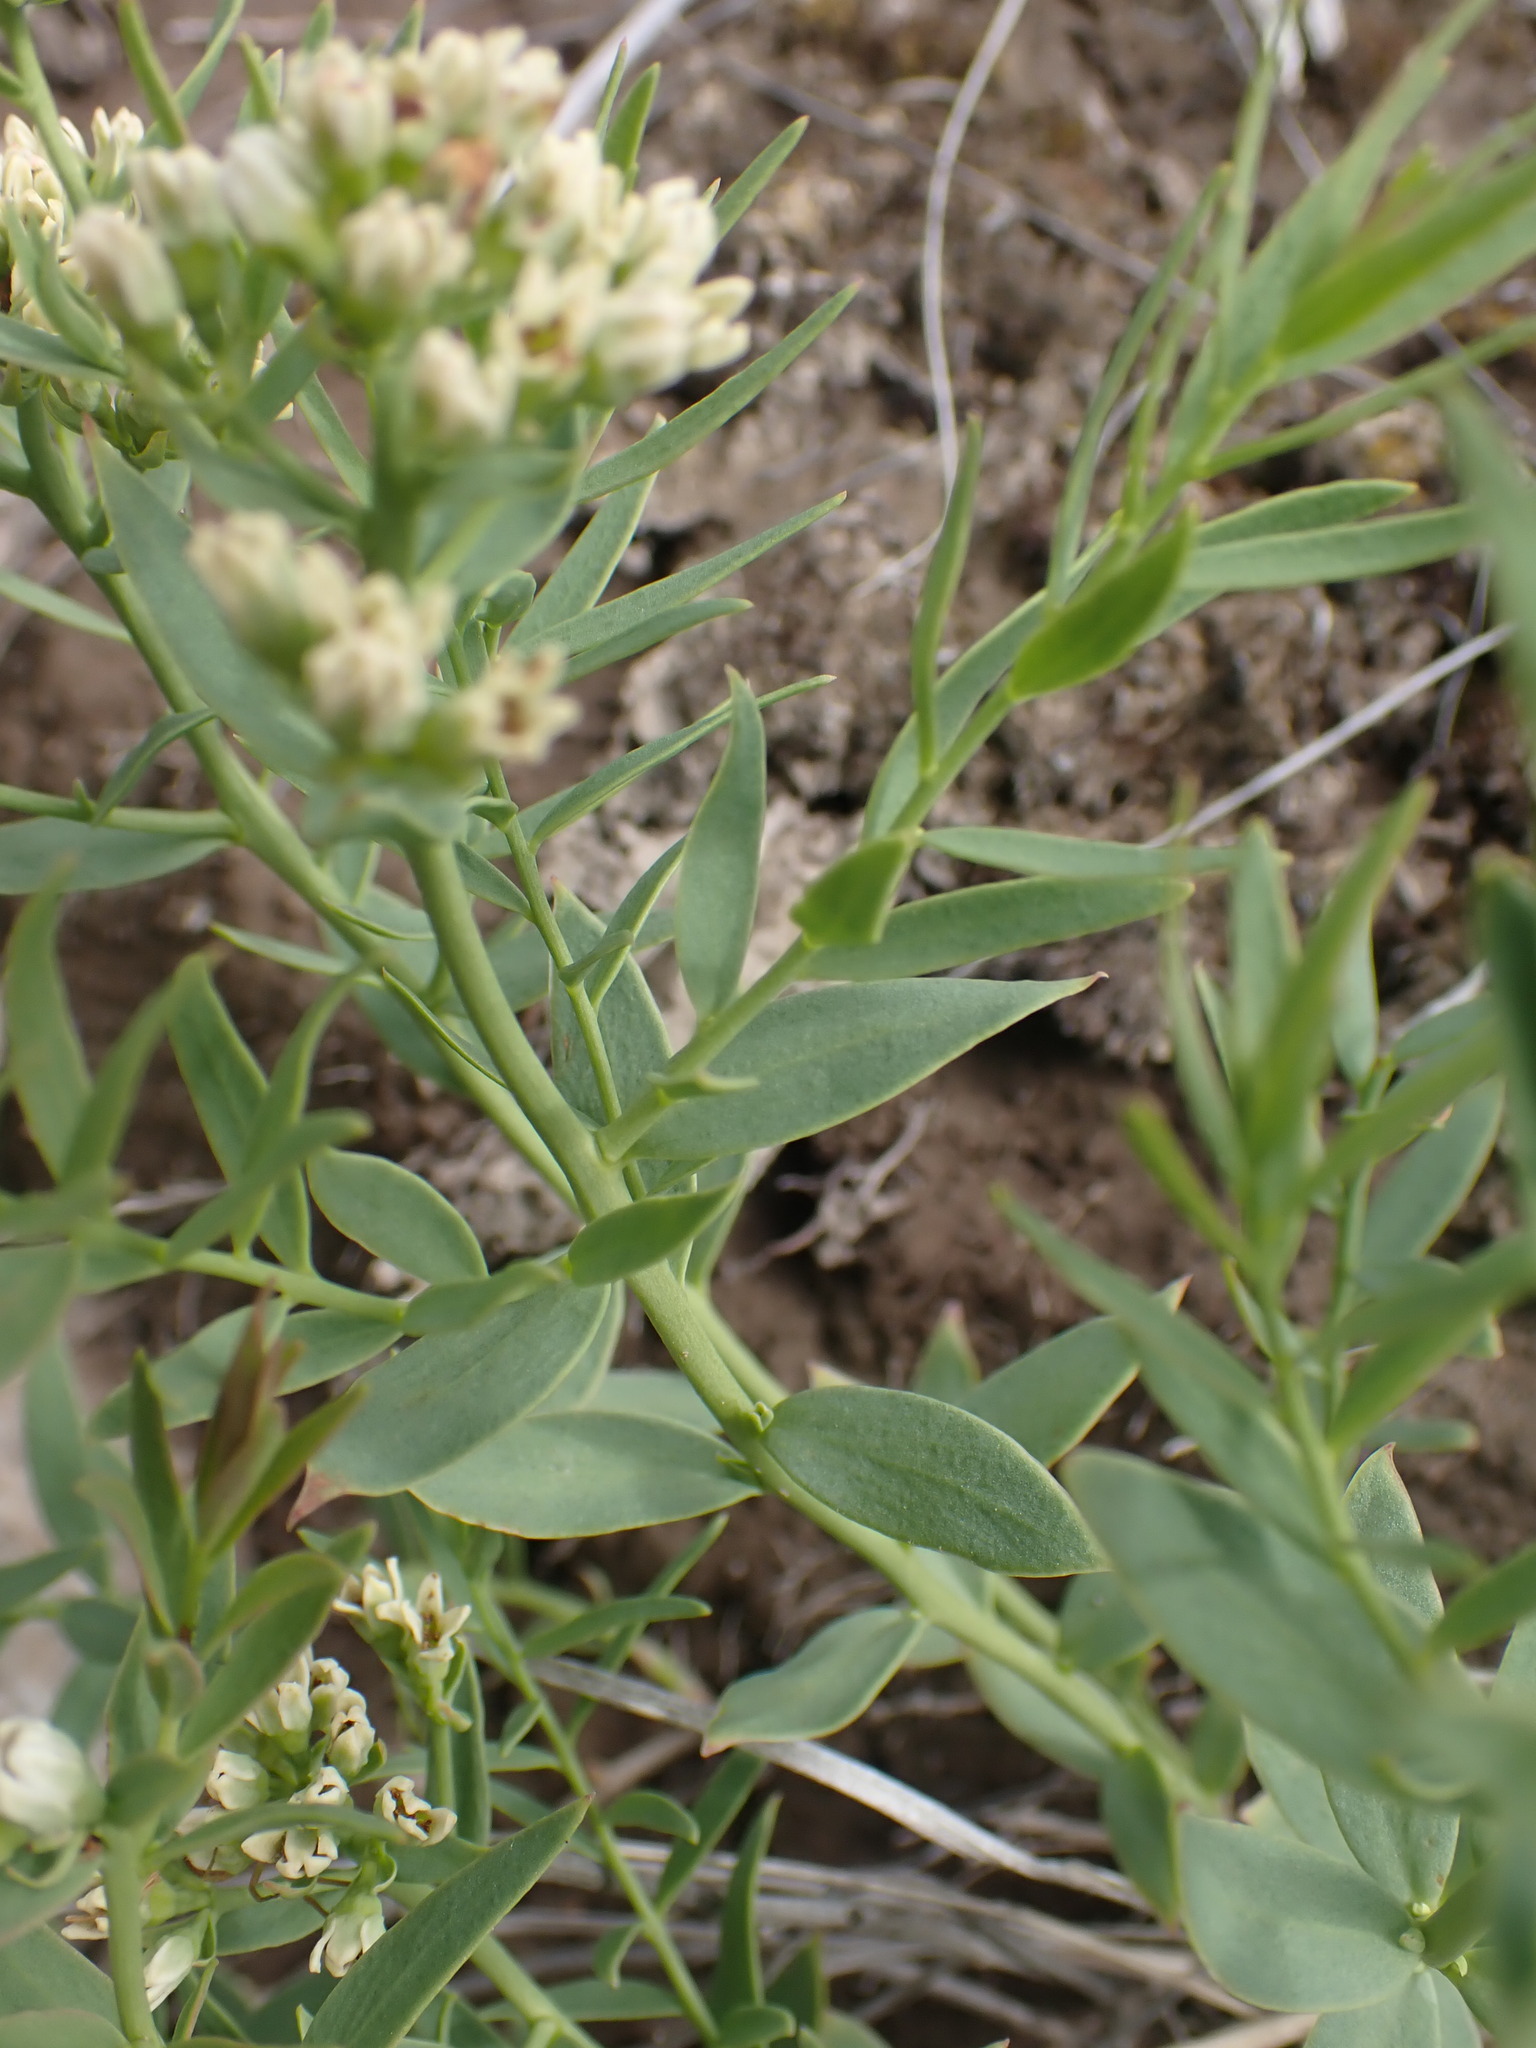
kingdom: Plantae
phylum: Tracheophyta
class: Magnoliopsida
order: Santalales
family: Comandraceae
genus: Comandra
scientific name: Comandra umbellata
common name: Bastard toadflax
